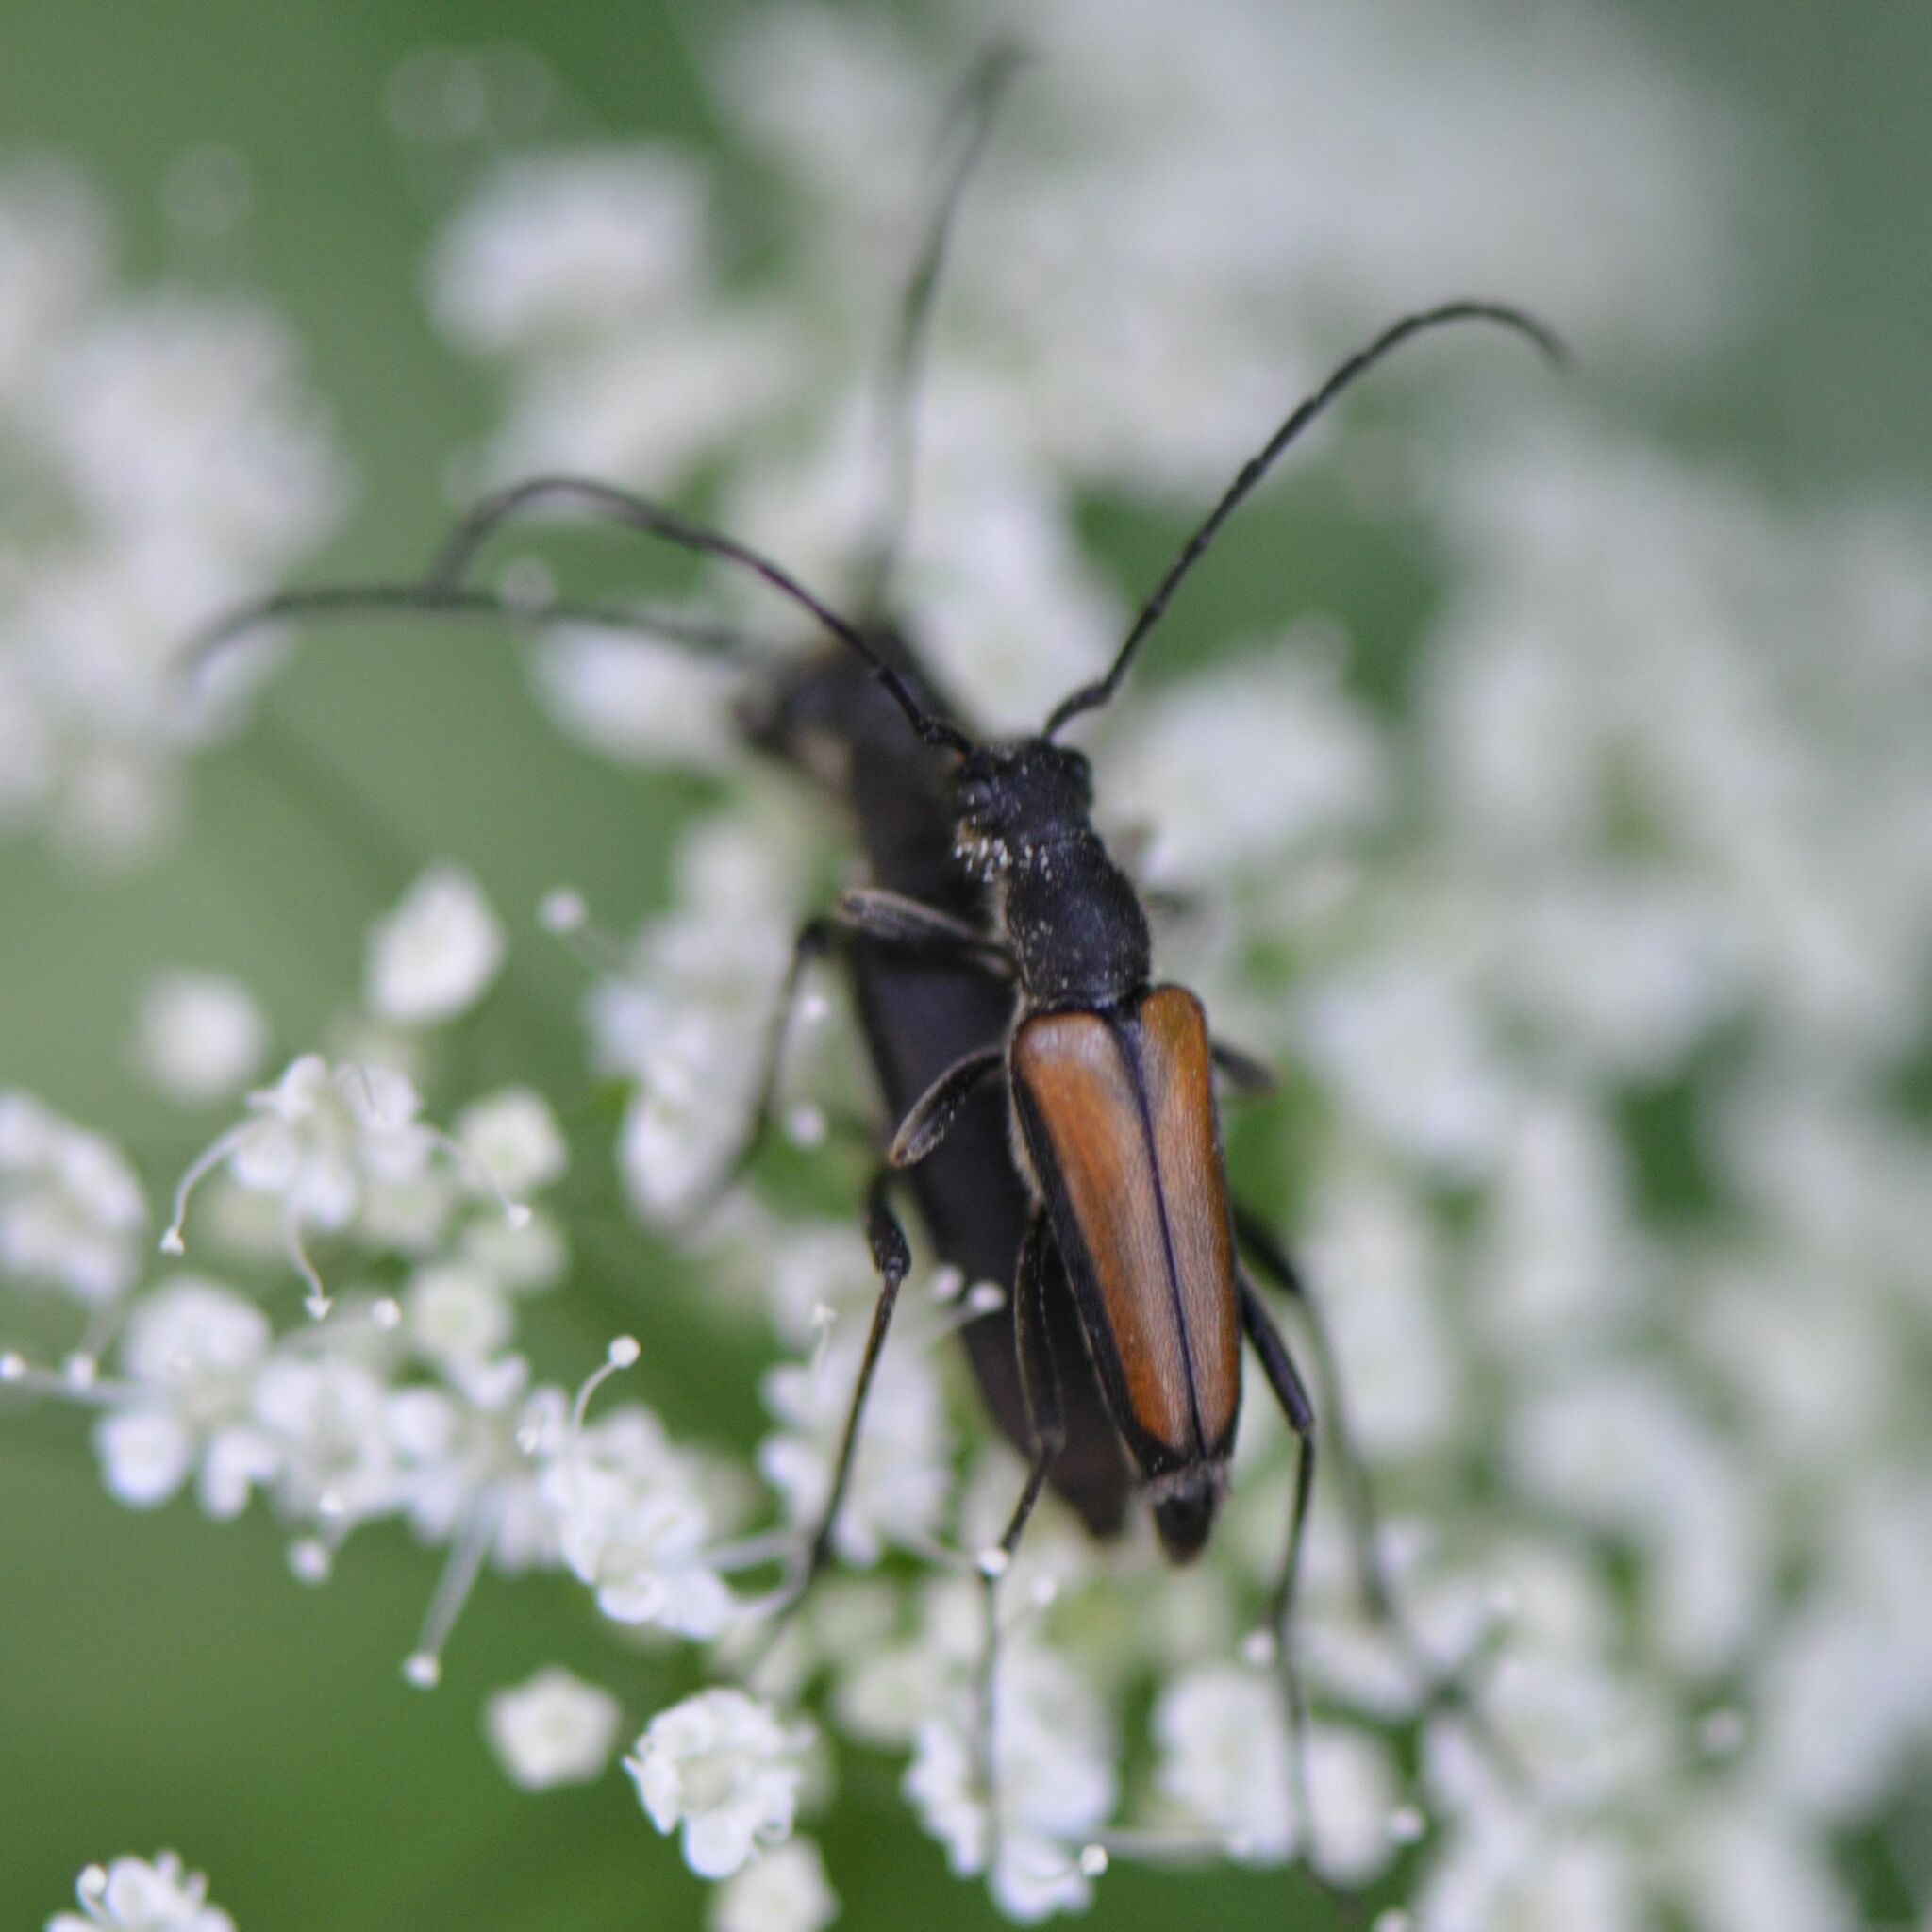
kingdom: Animalia
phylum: Arthropoda
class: Insecta
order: Coleoptera
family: Cerambycidae
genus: Anastrangalia
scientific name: Anastrangalia dubia
